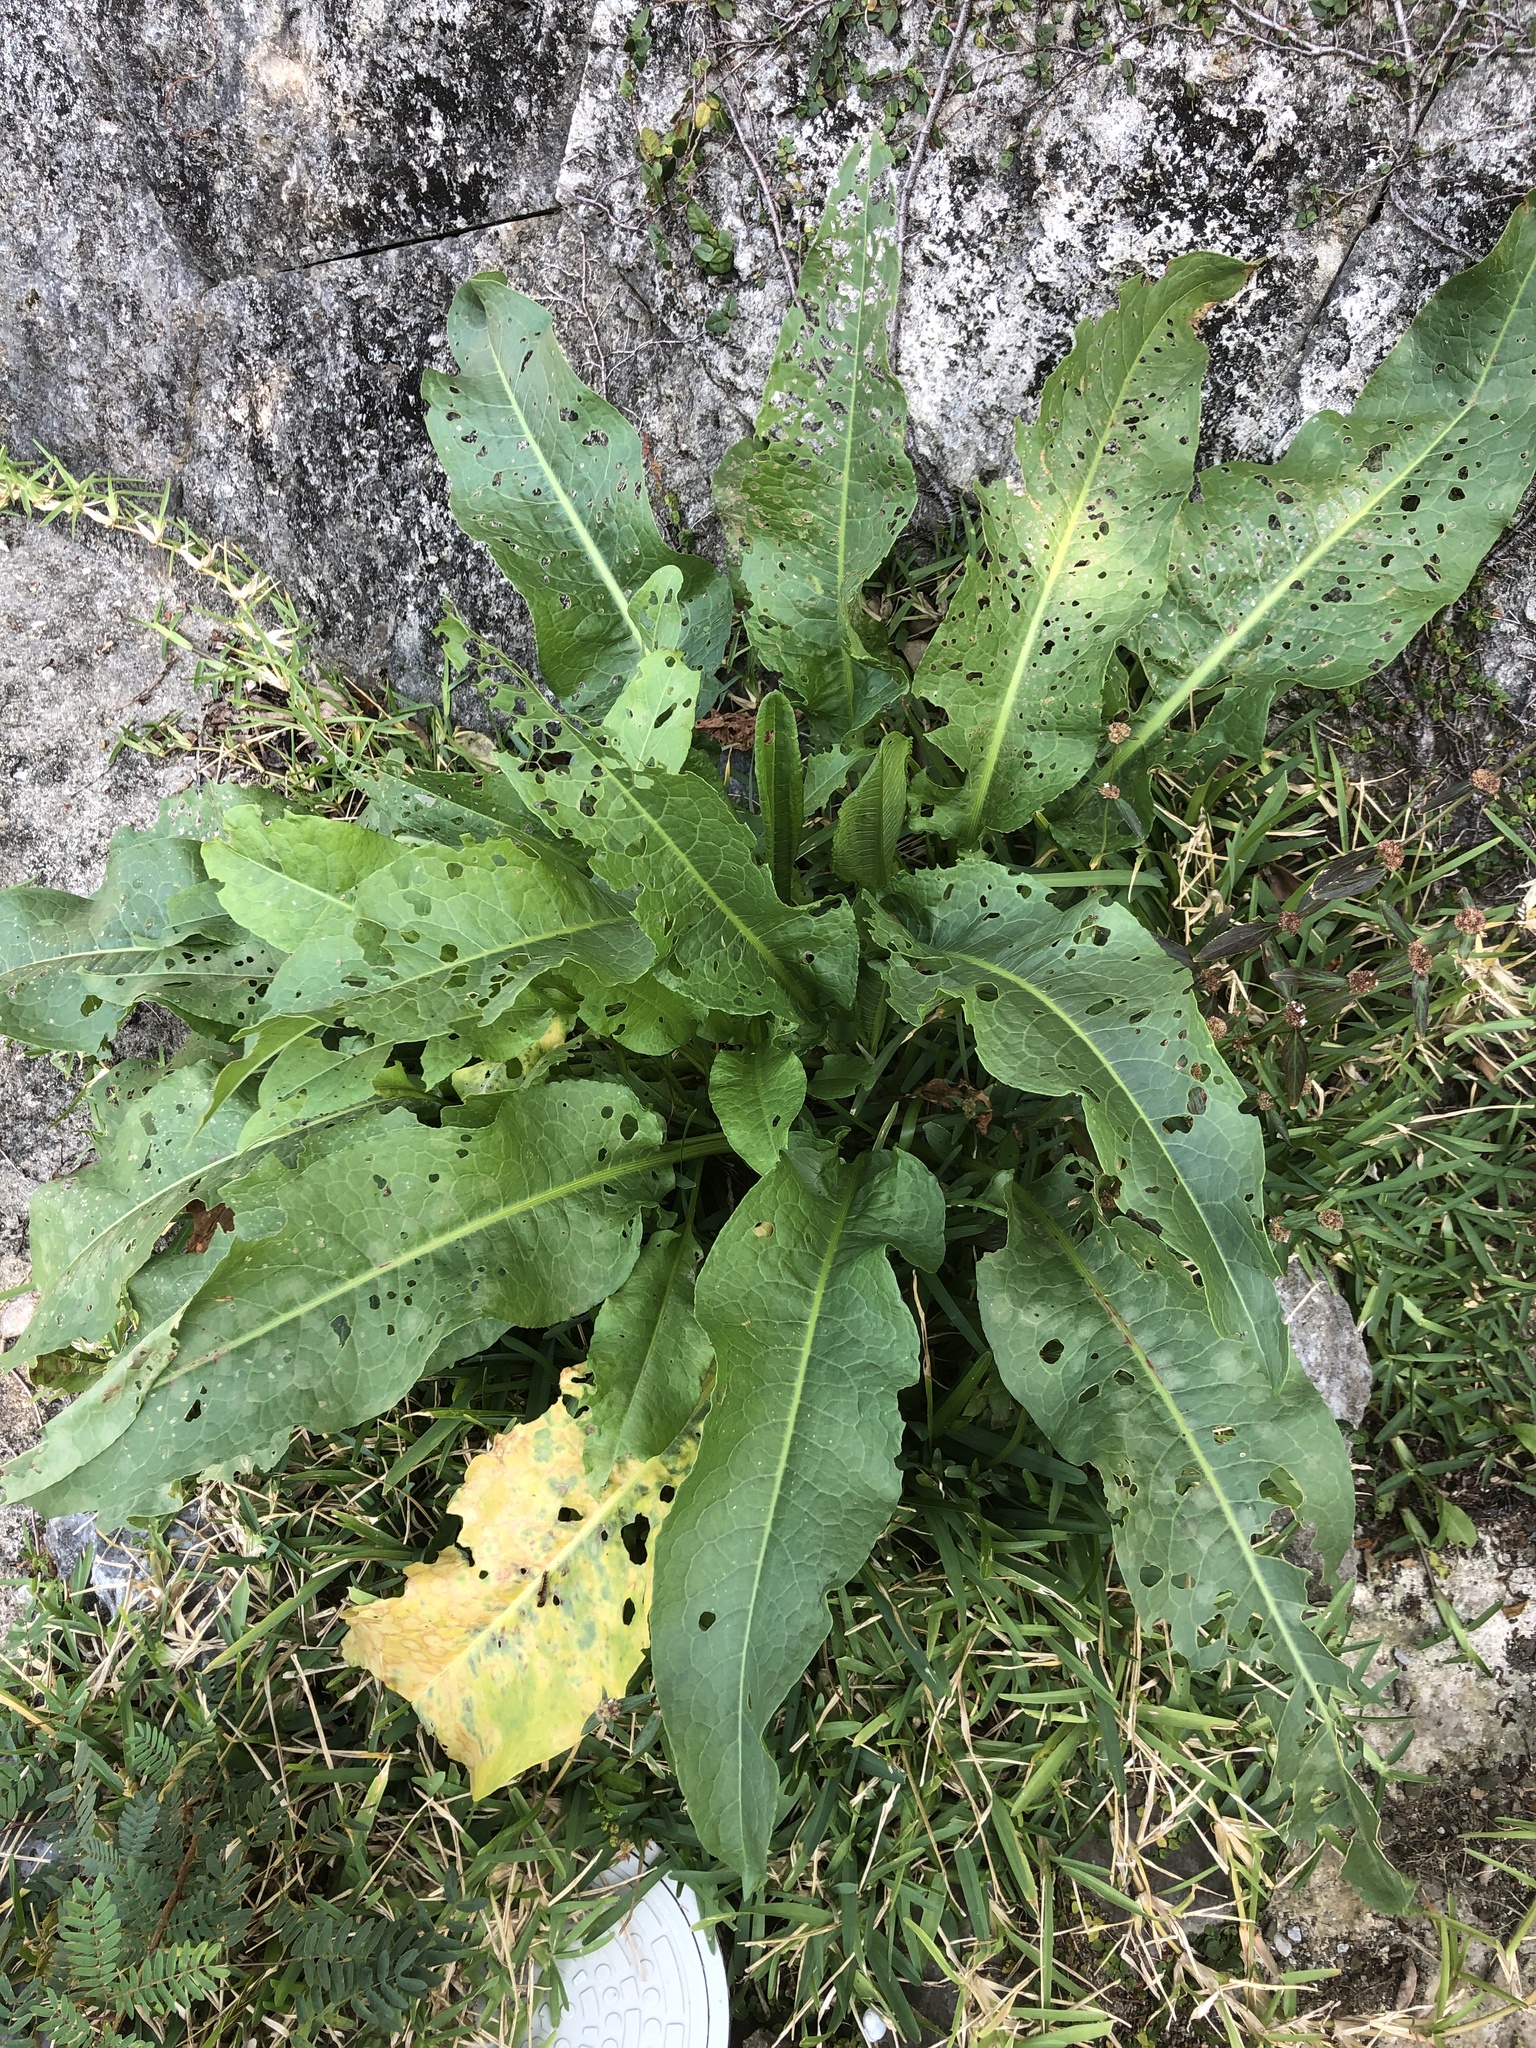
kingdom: Plantae
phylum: Tracheophyta
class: Magnoliopsida
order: Caryophyllales
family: Polygonaceae
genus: Rumex
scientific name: Rumex japonicus
